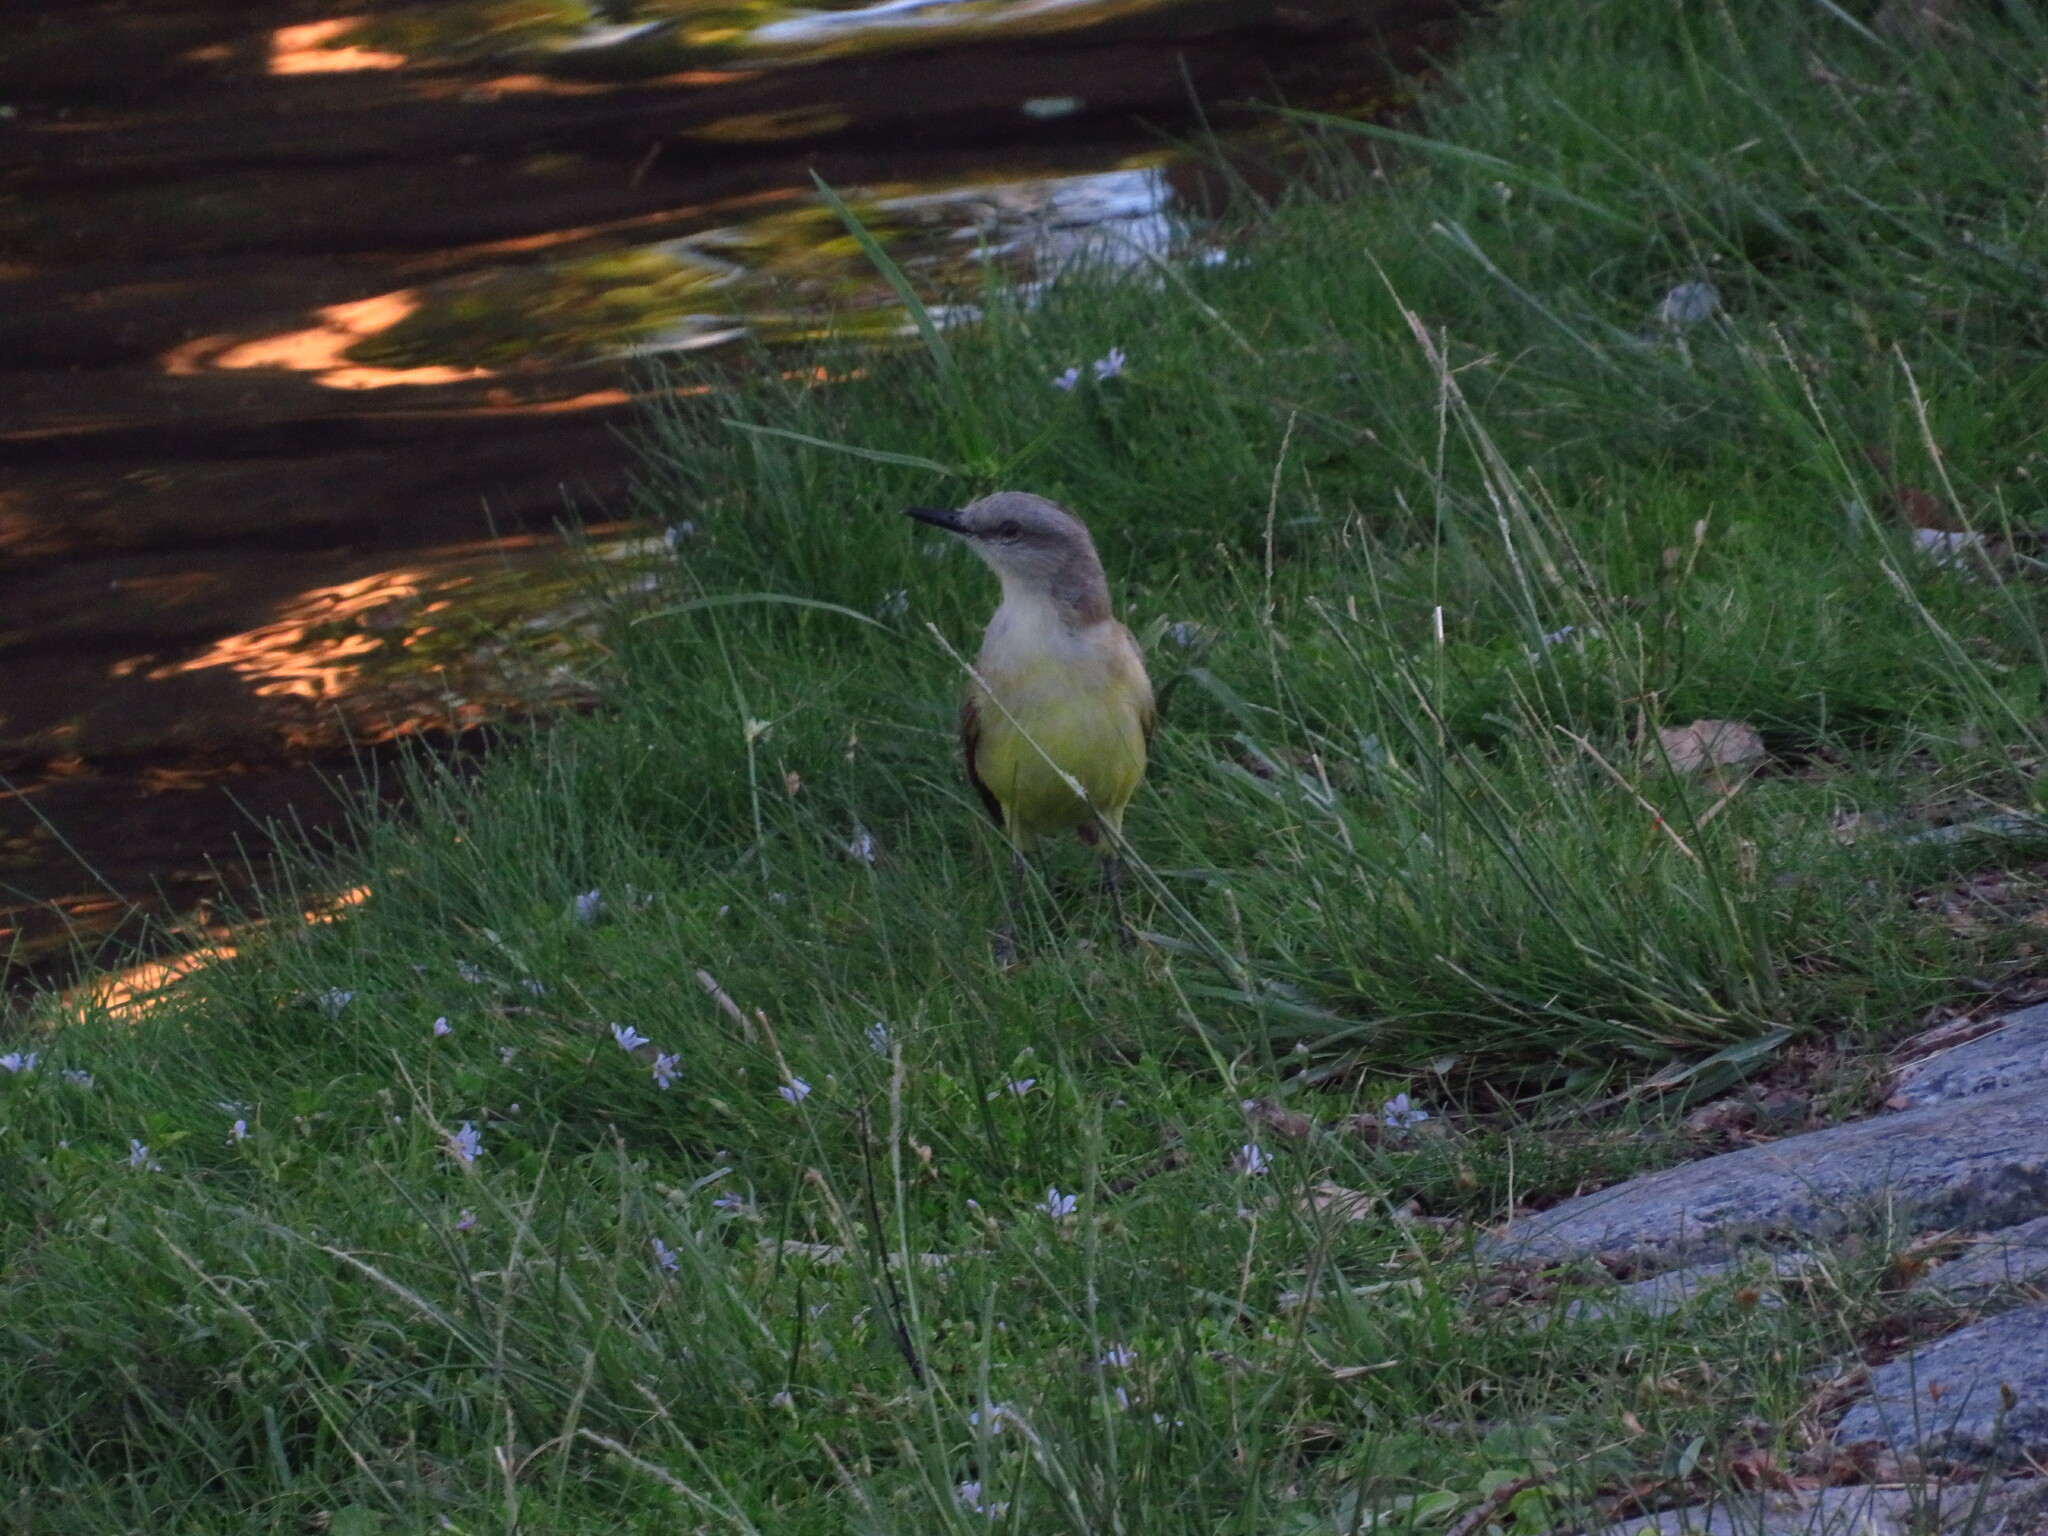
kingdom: Animalia
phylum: Chordata
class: Aves
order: Passeriformes
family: Tyrannidae
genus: Machetornis
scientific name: Machetornis rixosa
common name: Cattle tyrant
